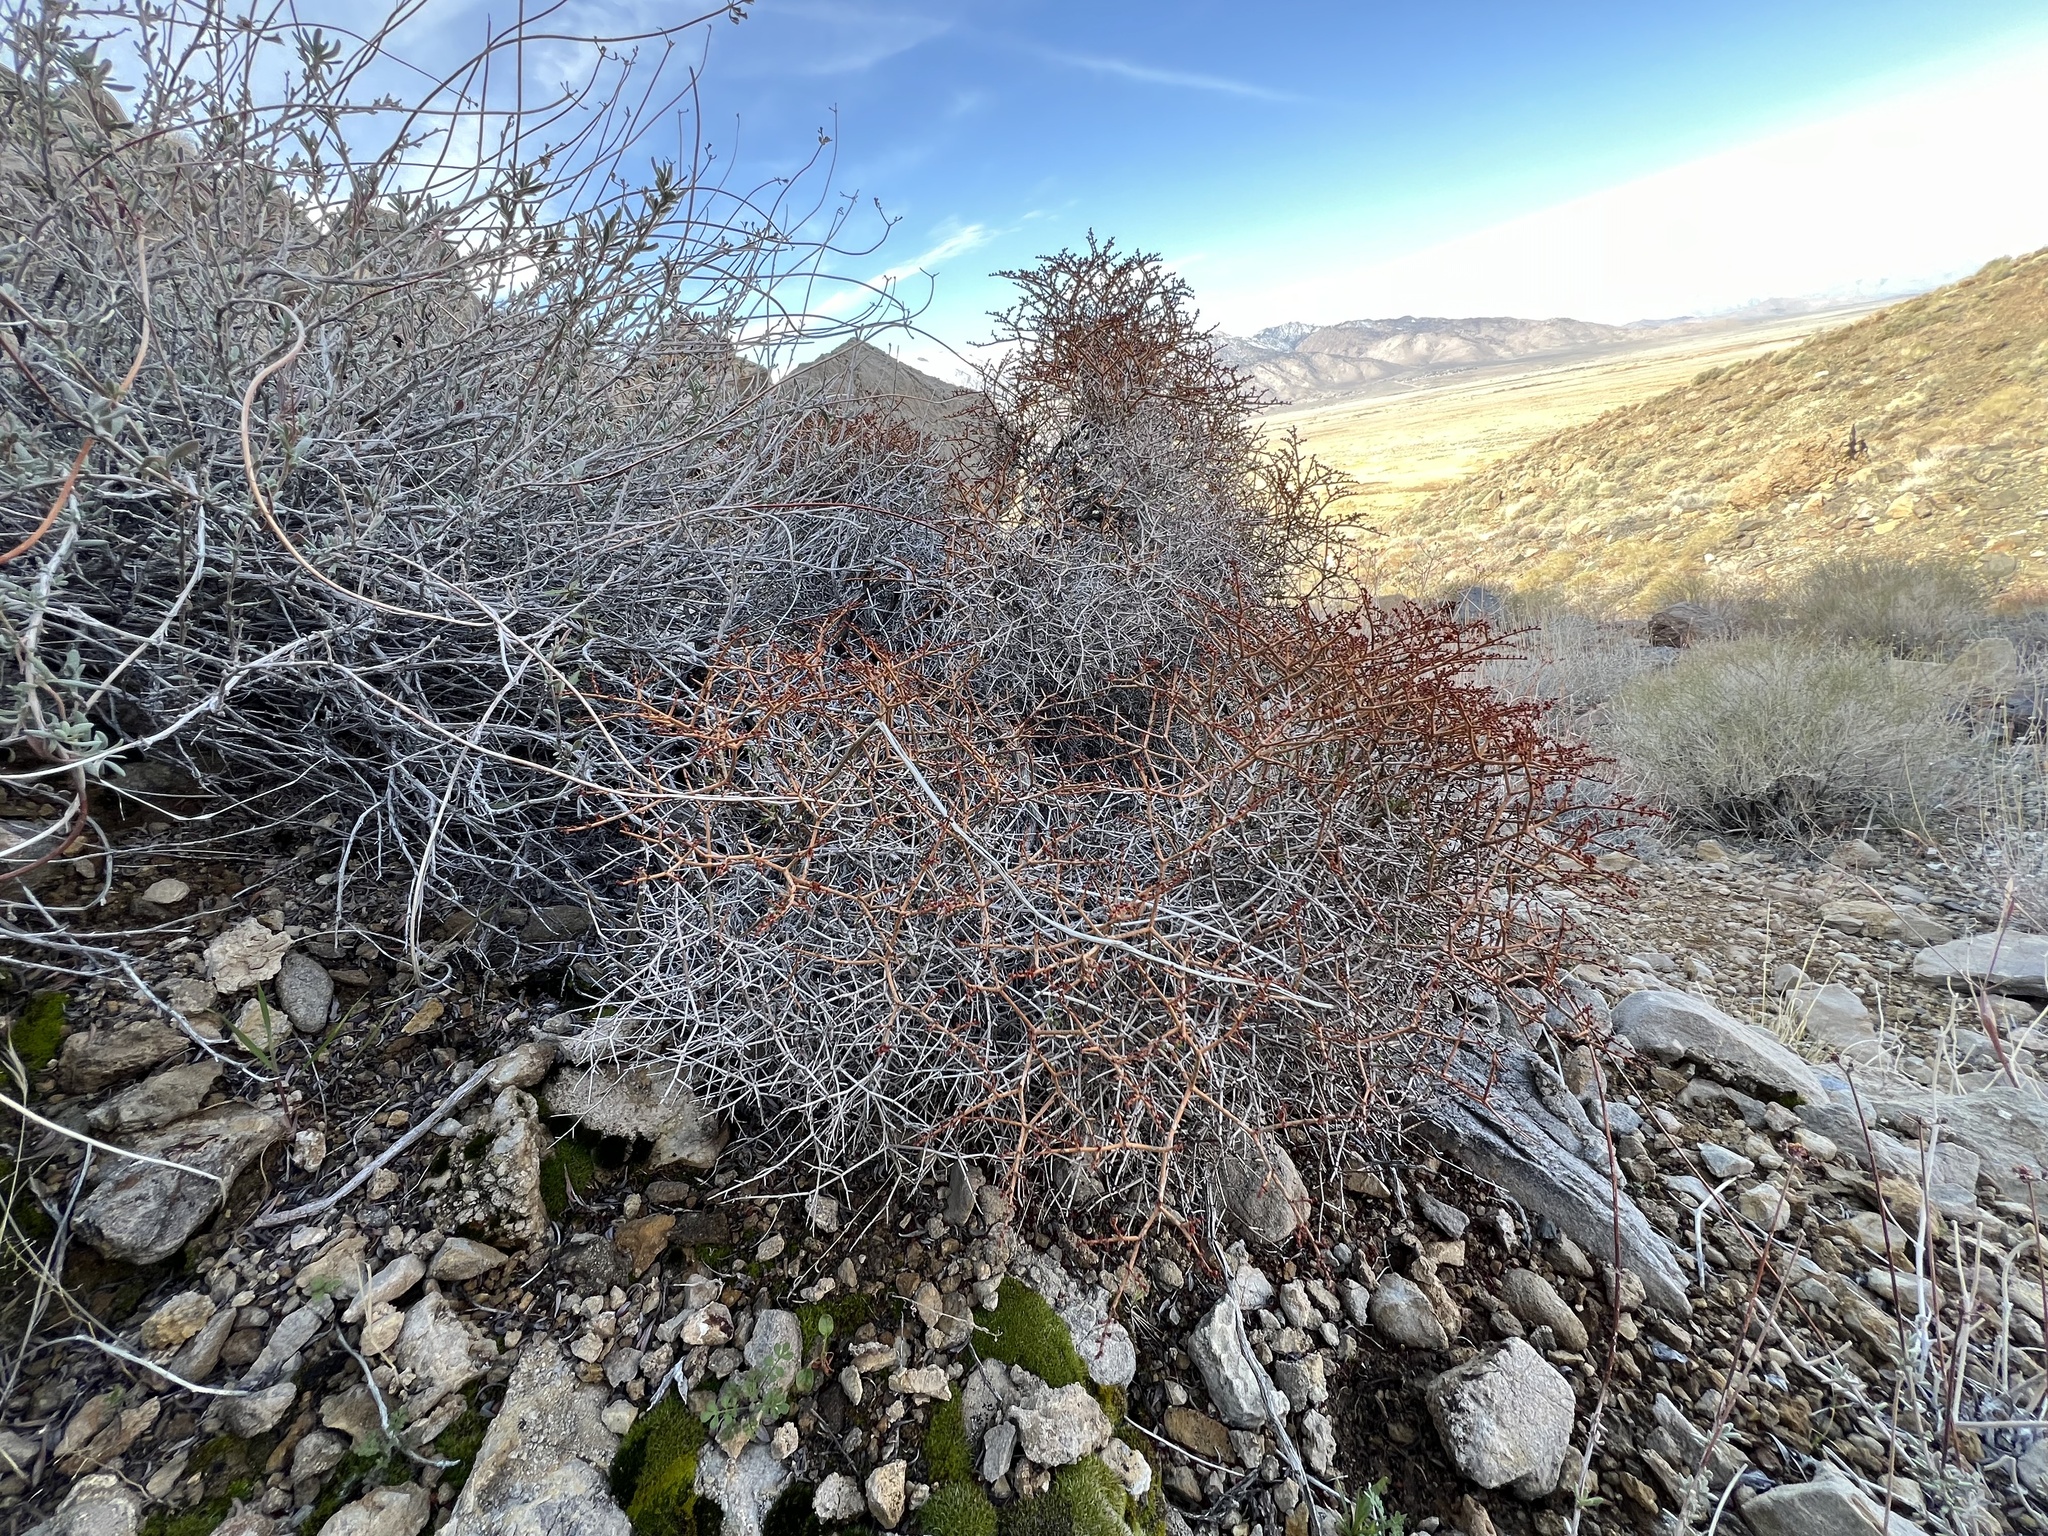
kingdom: Plantae
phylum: Tracheophyta
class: Magnoliopsida
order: Caryophyllales
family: Polygonaceae
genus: Eriogonum
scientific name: Eriogonum heermannii
